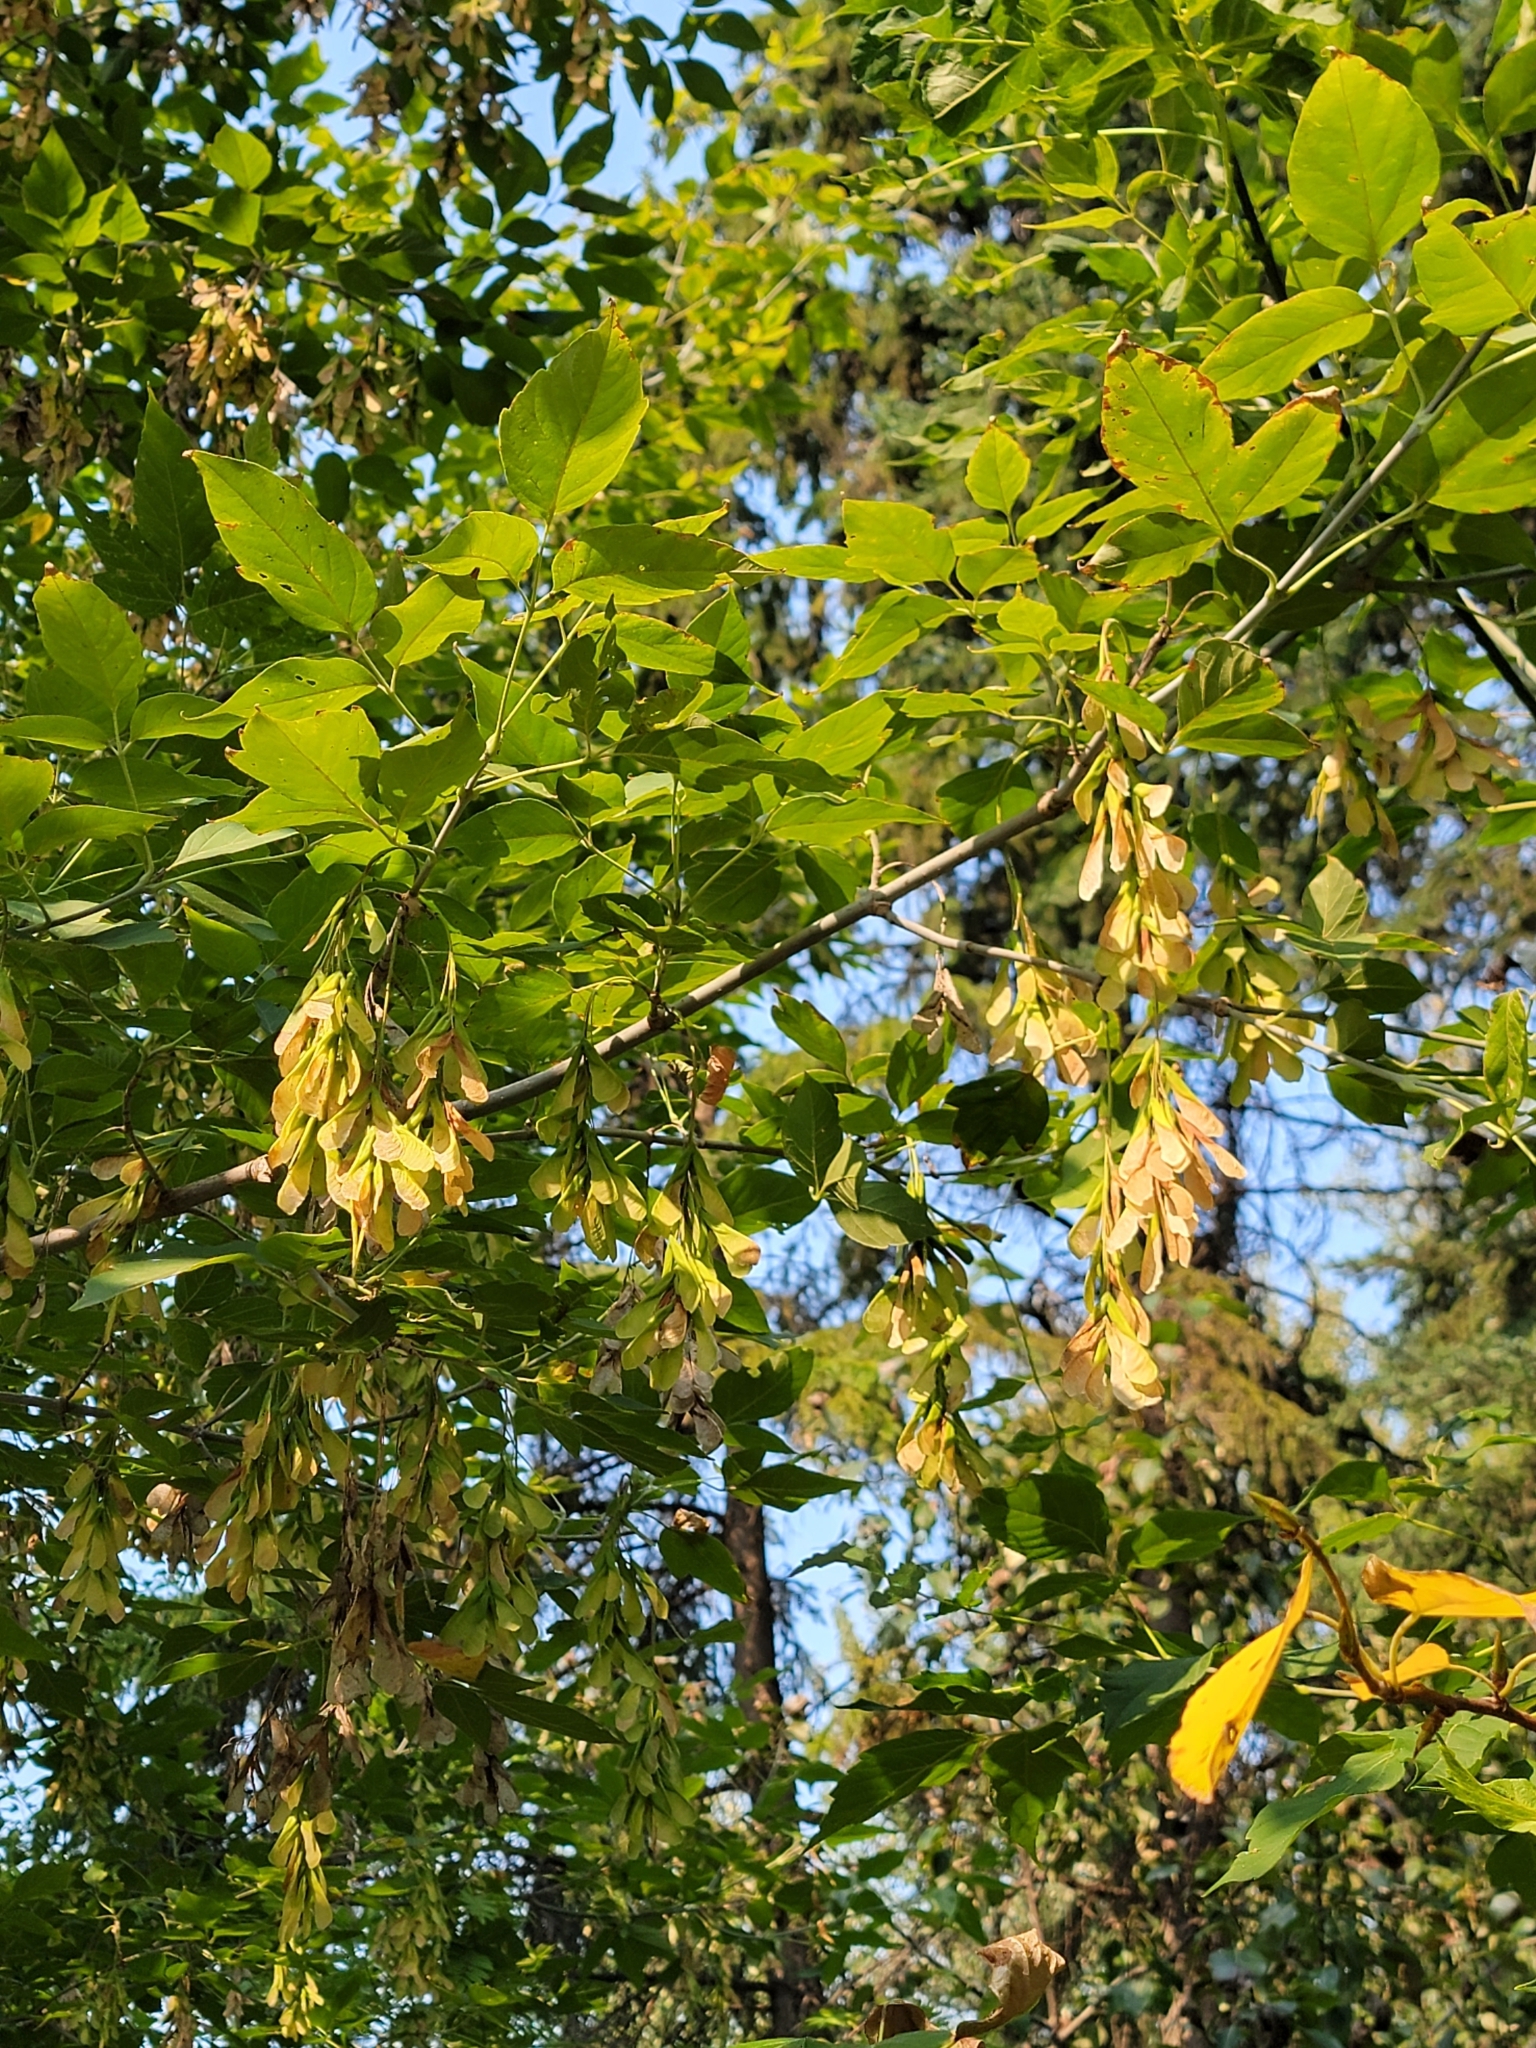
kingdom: Plantae
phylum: Tracheophyta
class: Magnoliopsida
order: Sapindales
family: Sapindaceae
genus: Acer
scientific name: Acer negundo
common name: Ashleaf maple
